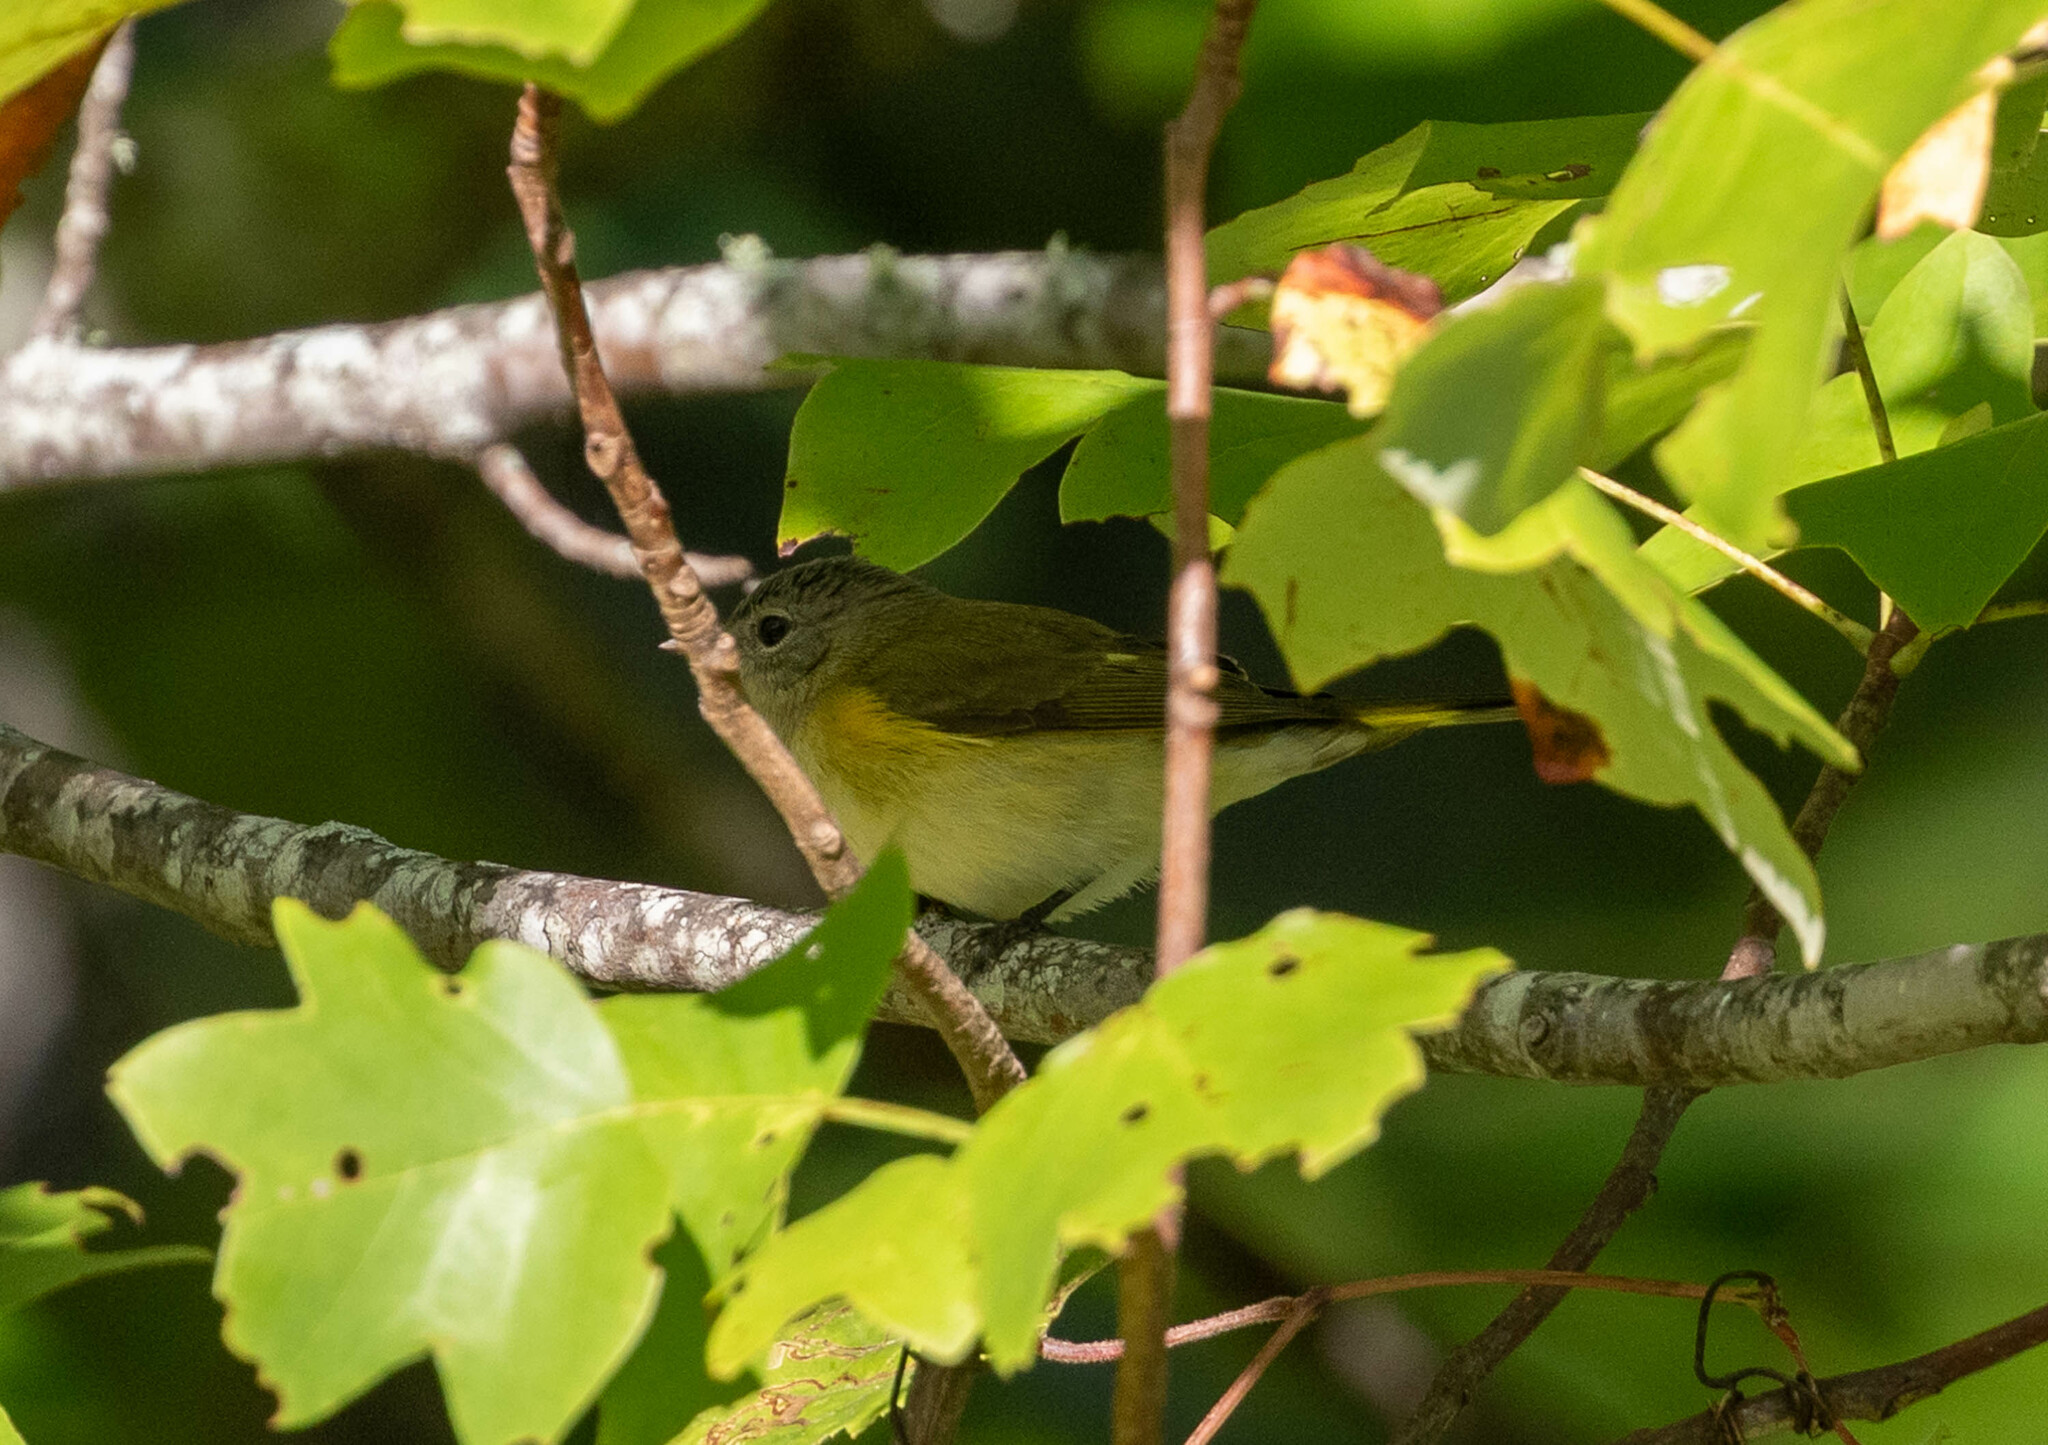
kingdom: Animalia
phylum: Chordata
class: Aves
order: Passeriformes
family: Parulidae
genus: Setophaga
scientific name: Setophaga ruticilla
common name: American redstart
